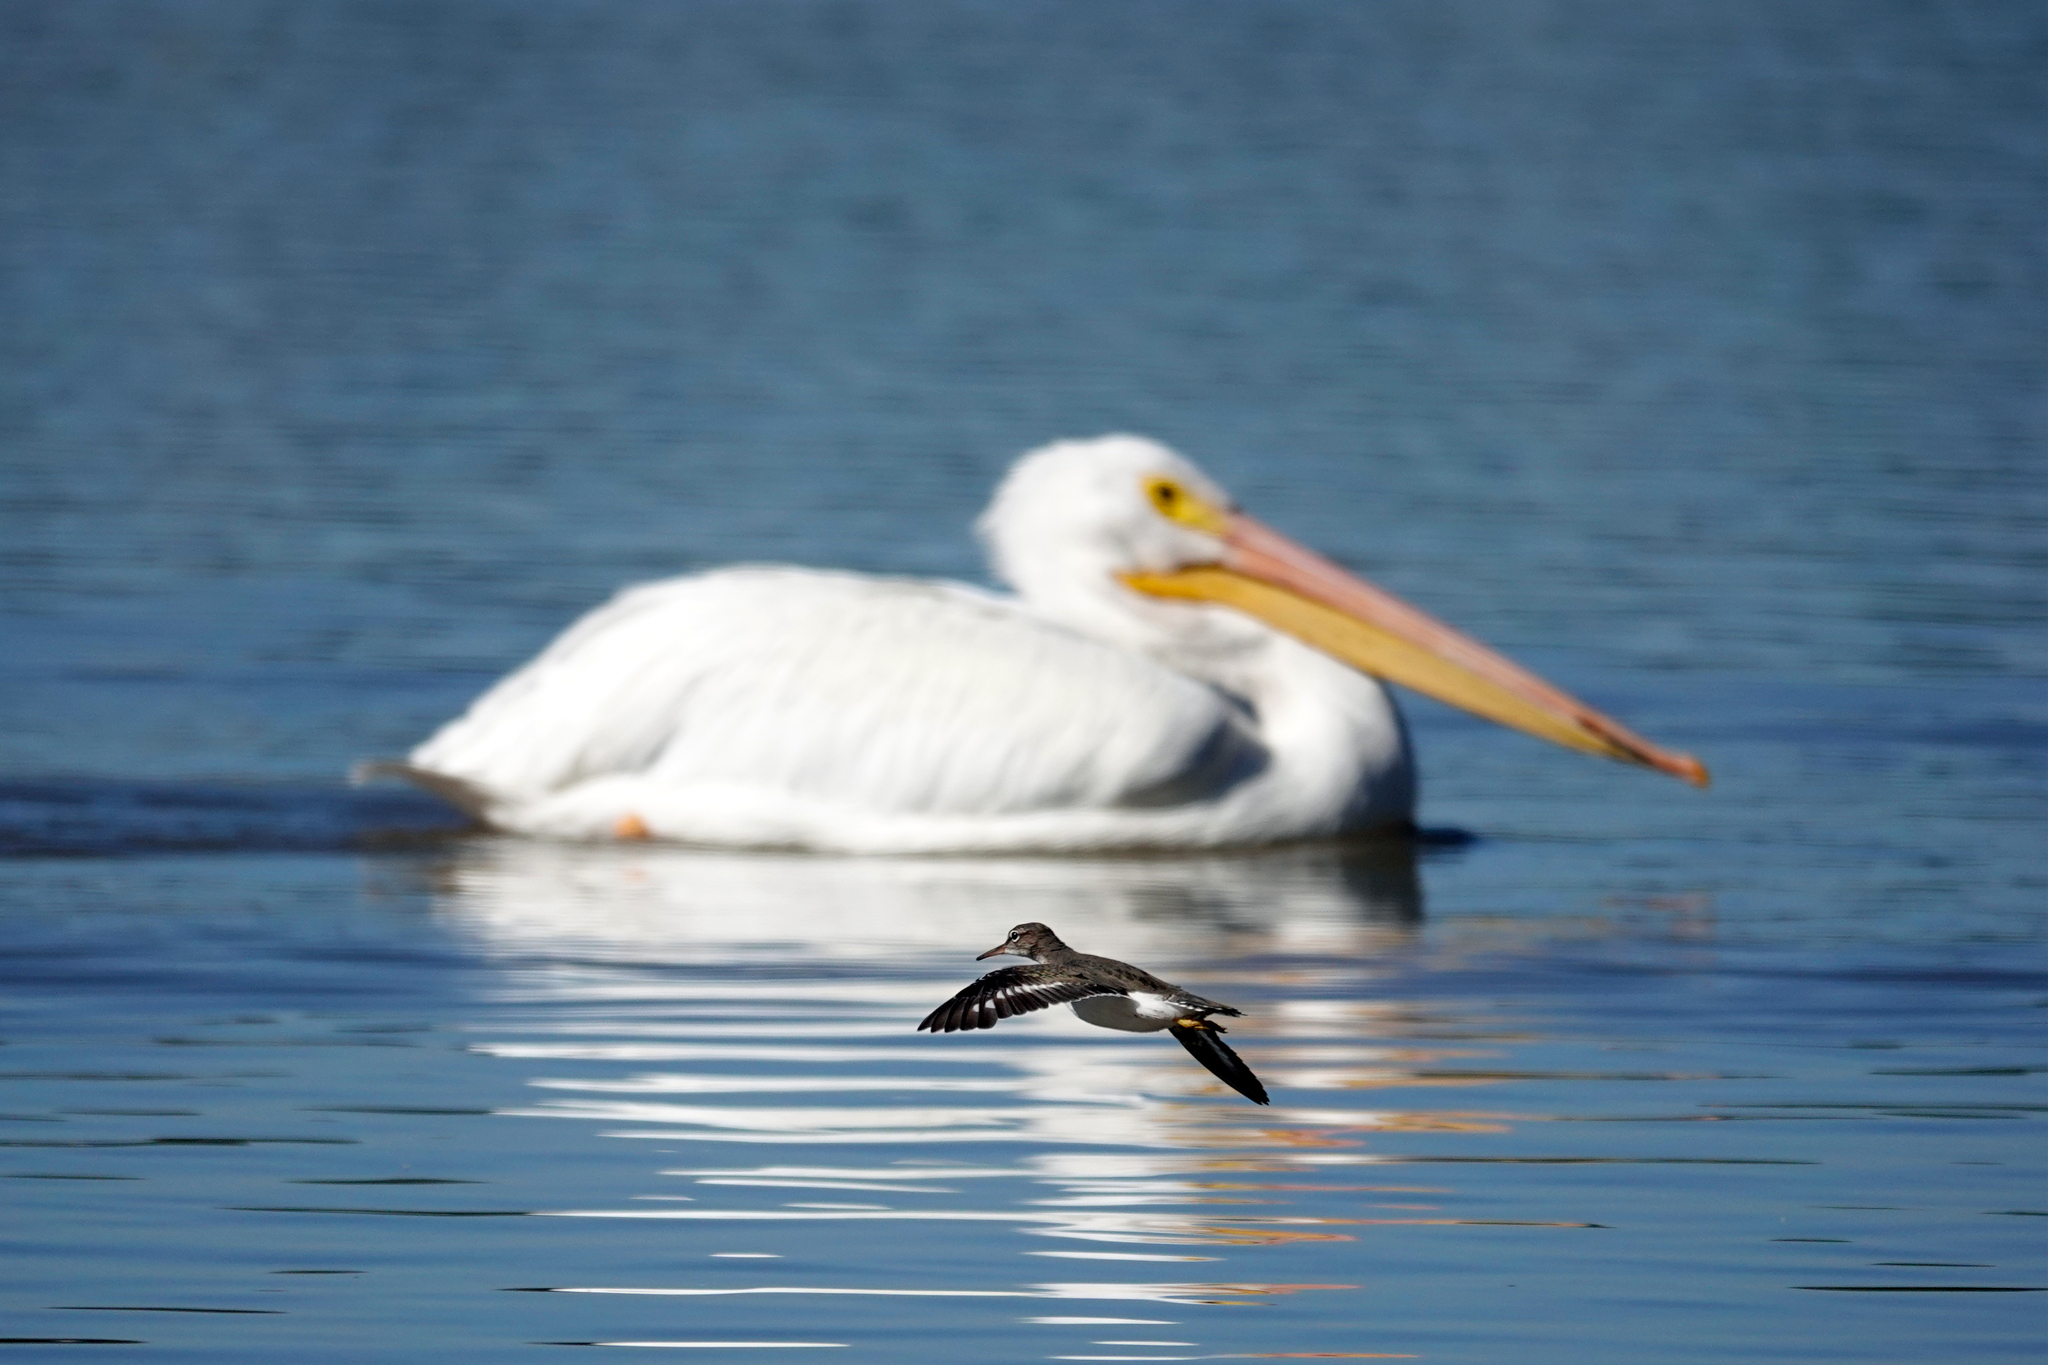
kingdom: Animalia
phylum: Chordata
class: Aves
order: Charadriiformes
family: Scolopacidae
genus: Actitis
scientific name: Actitis macularius
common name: Spotted sandpiper
